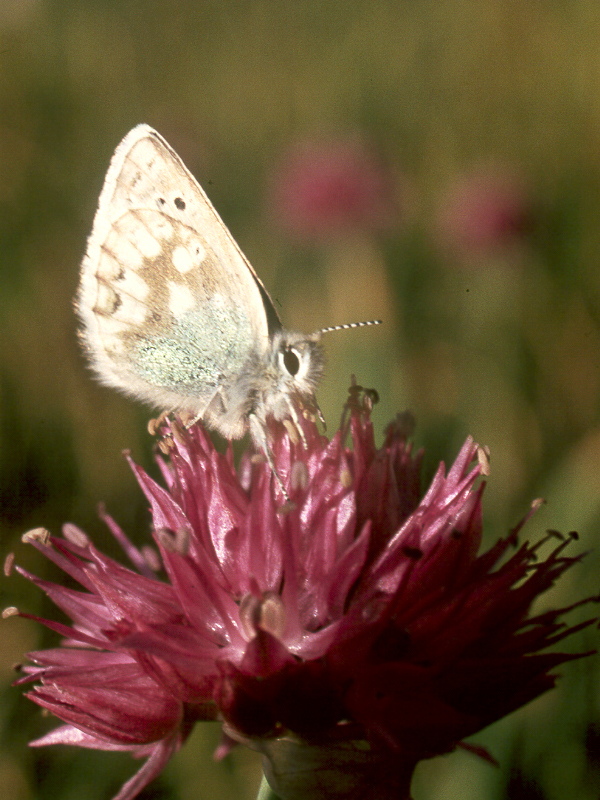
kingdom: Animalia
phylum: Arthropoda
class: Insecta
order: Lepidoptera
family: Lycaenidae
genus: Agriades
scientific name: Agriades pheretiades
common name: Tien shan blue
